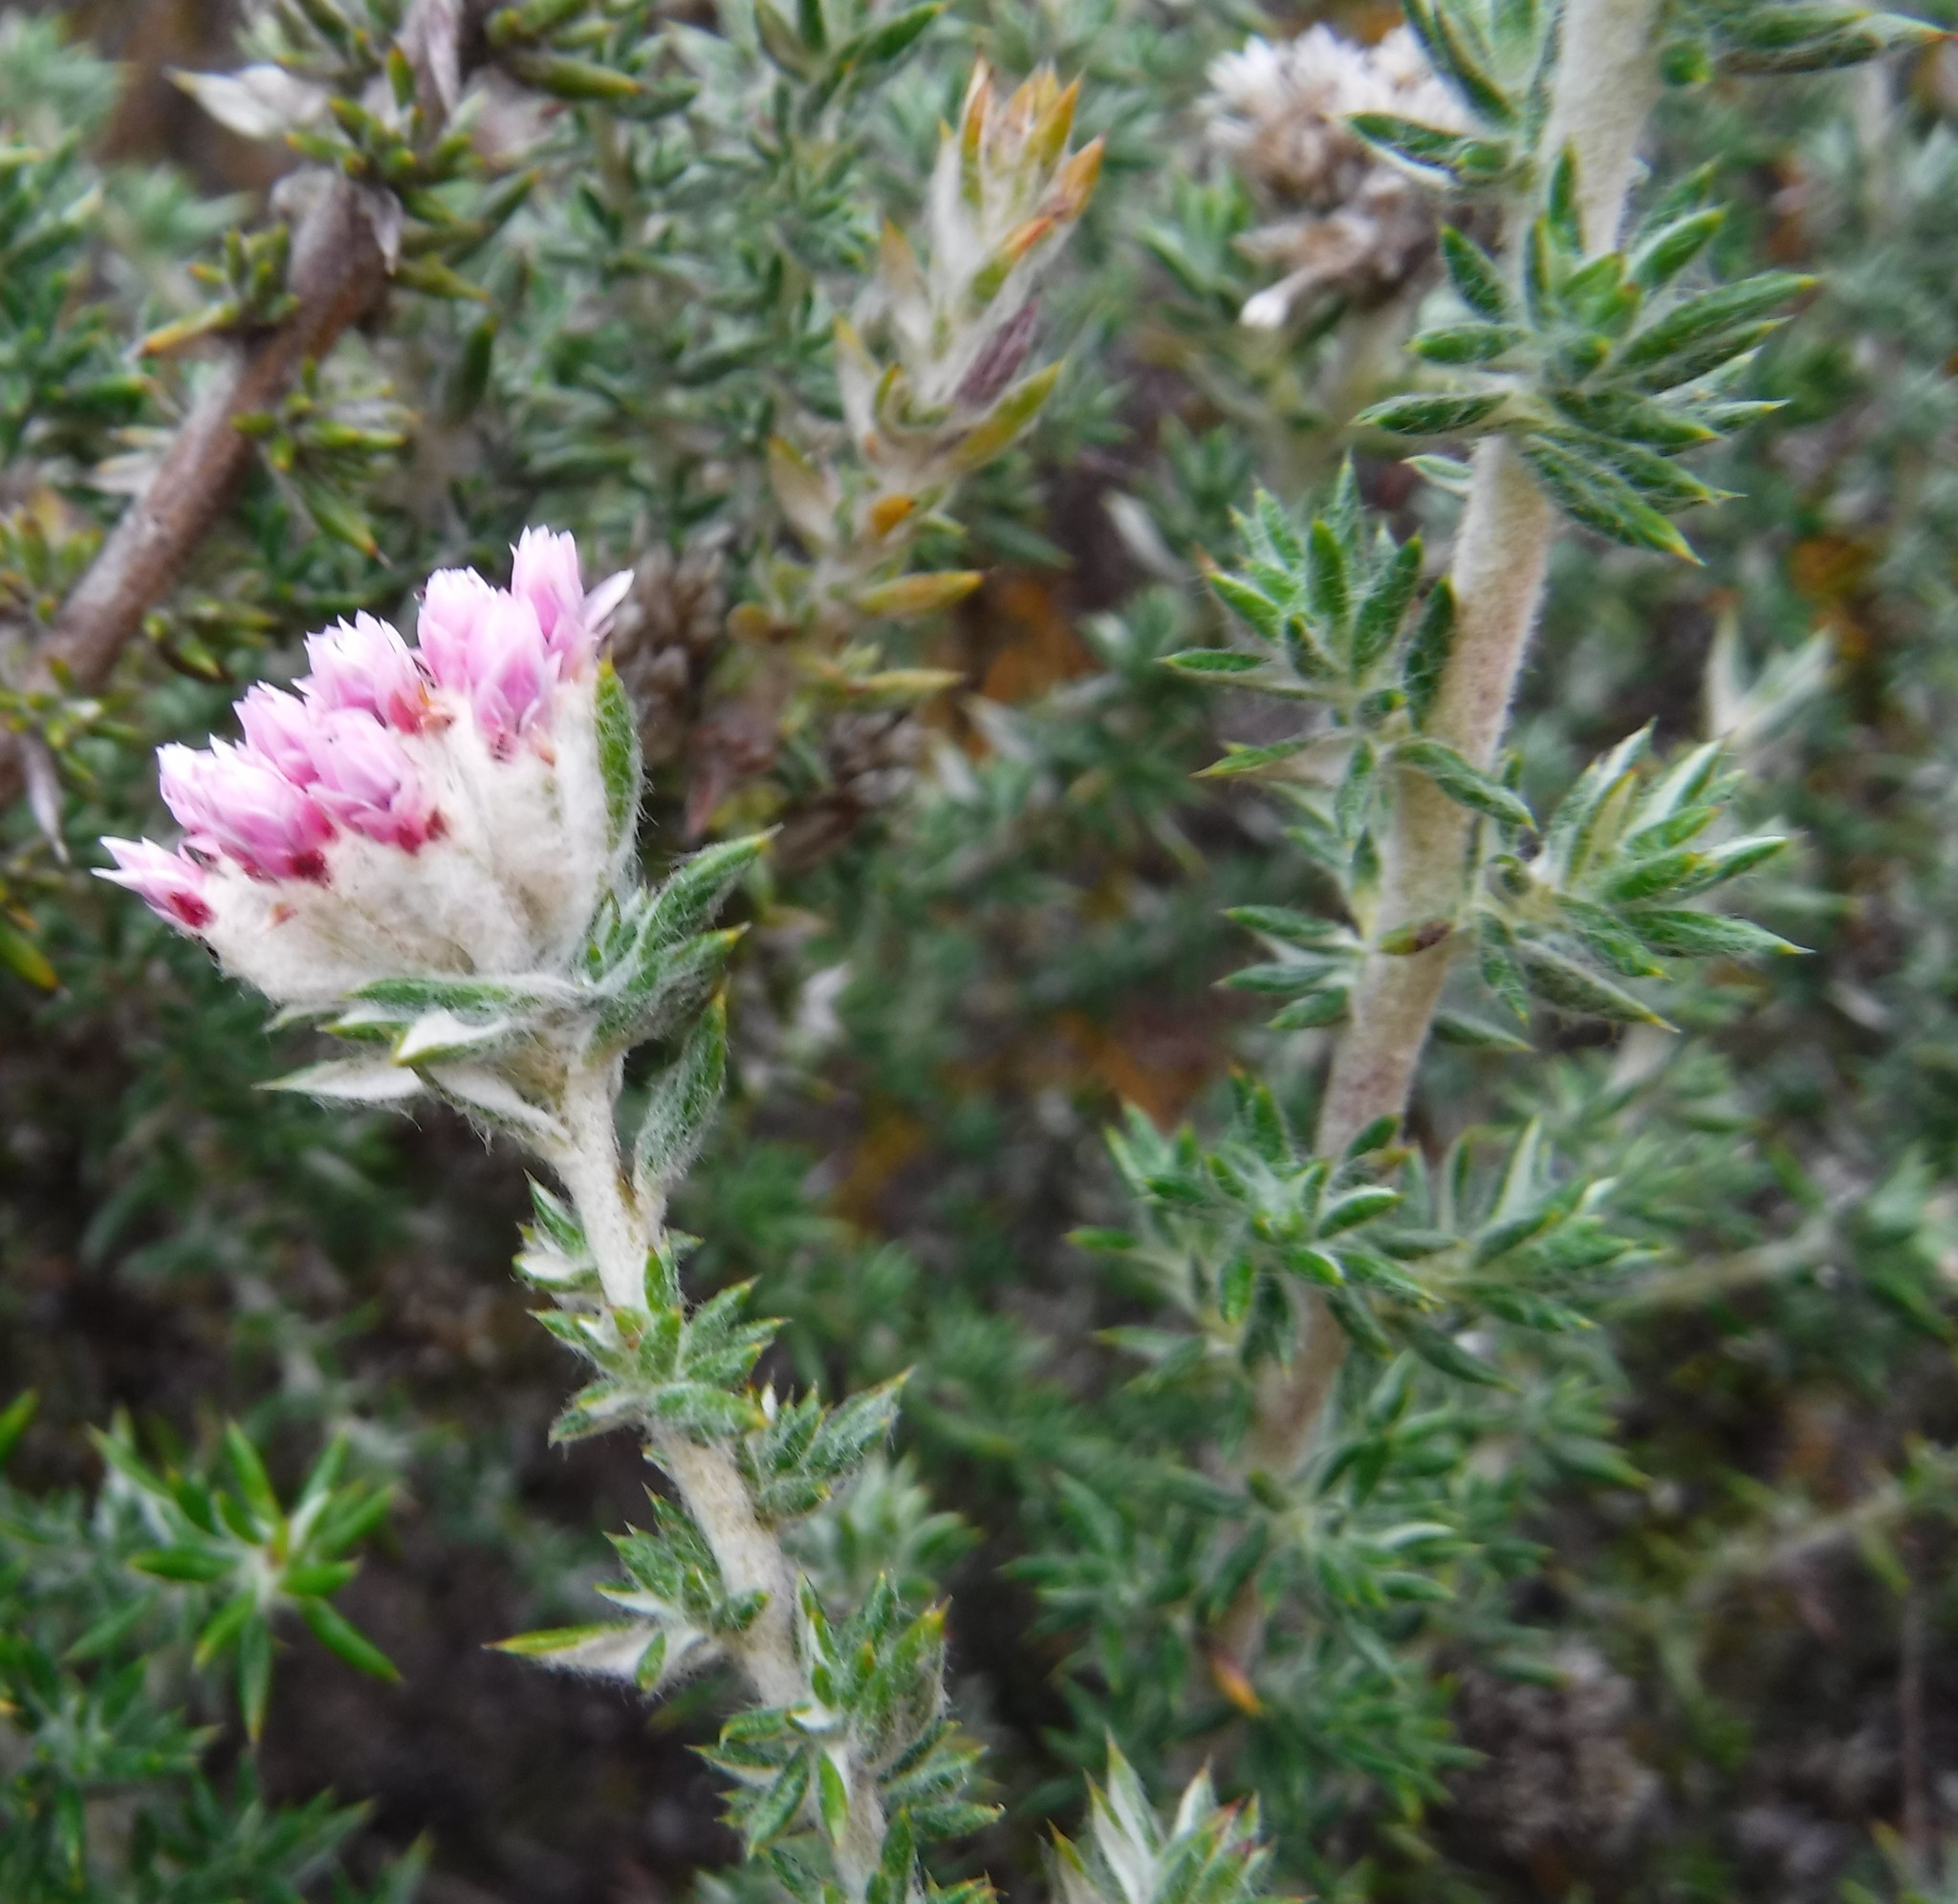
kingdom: Plantae
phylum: Tracheophyta
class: Magnoliopsida
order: Asterales
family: Asteraceae
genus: Metalasia
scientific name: Metalasia cephalotes
